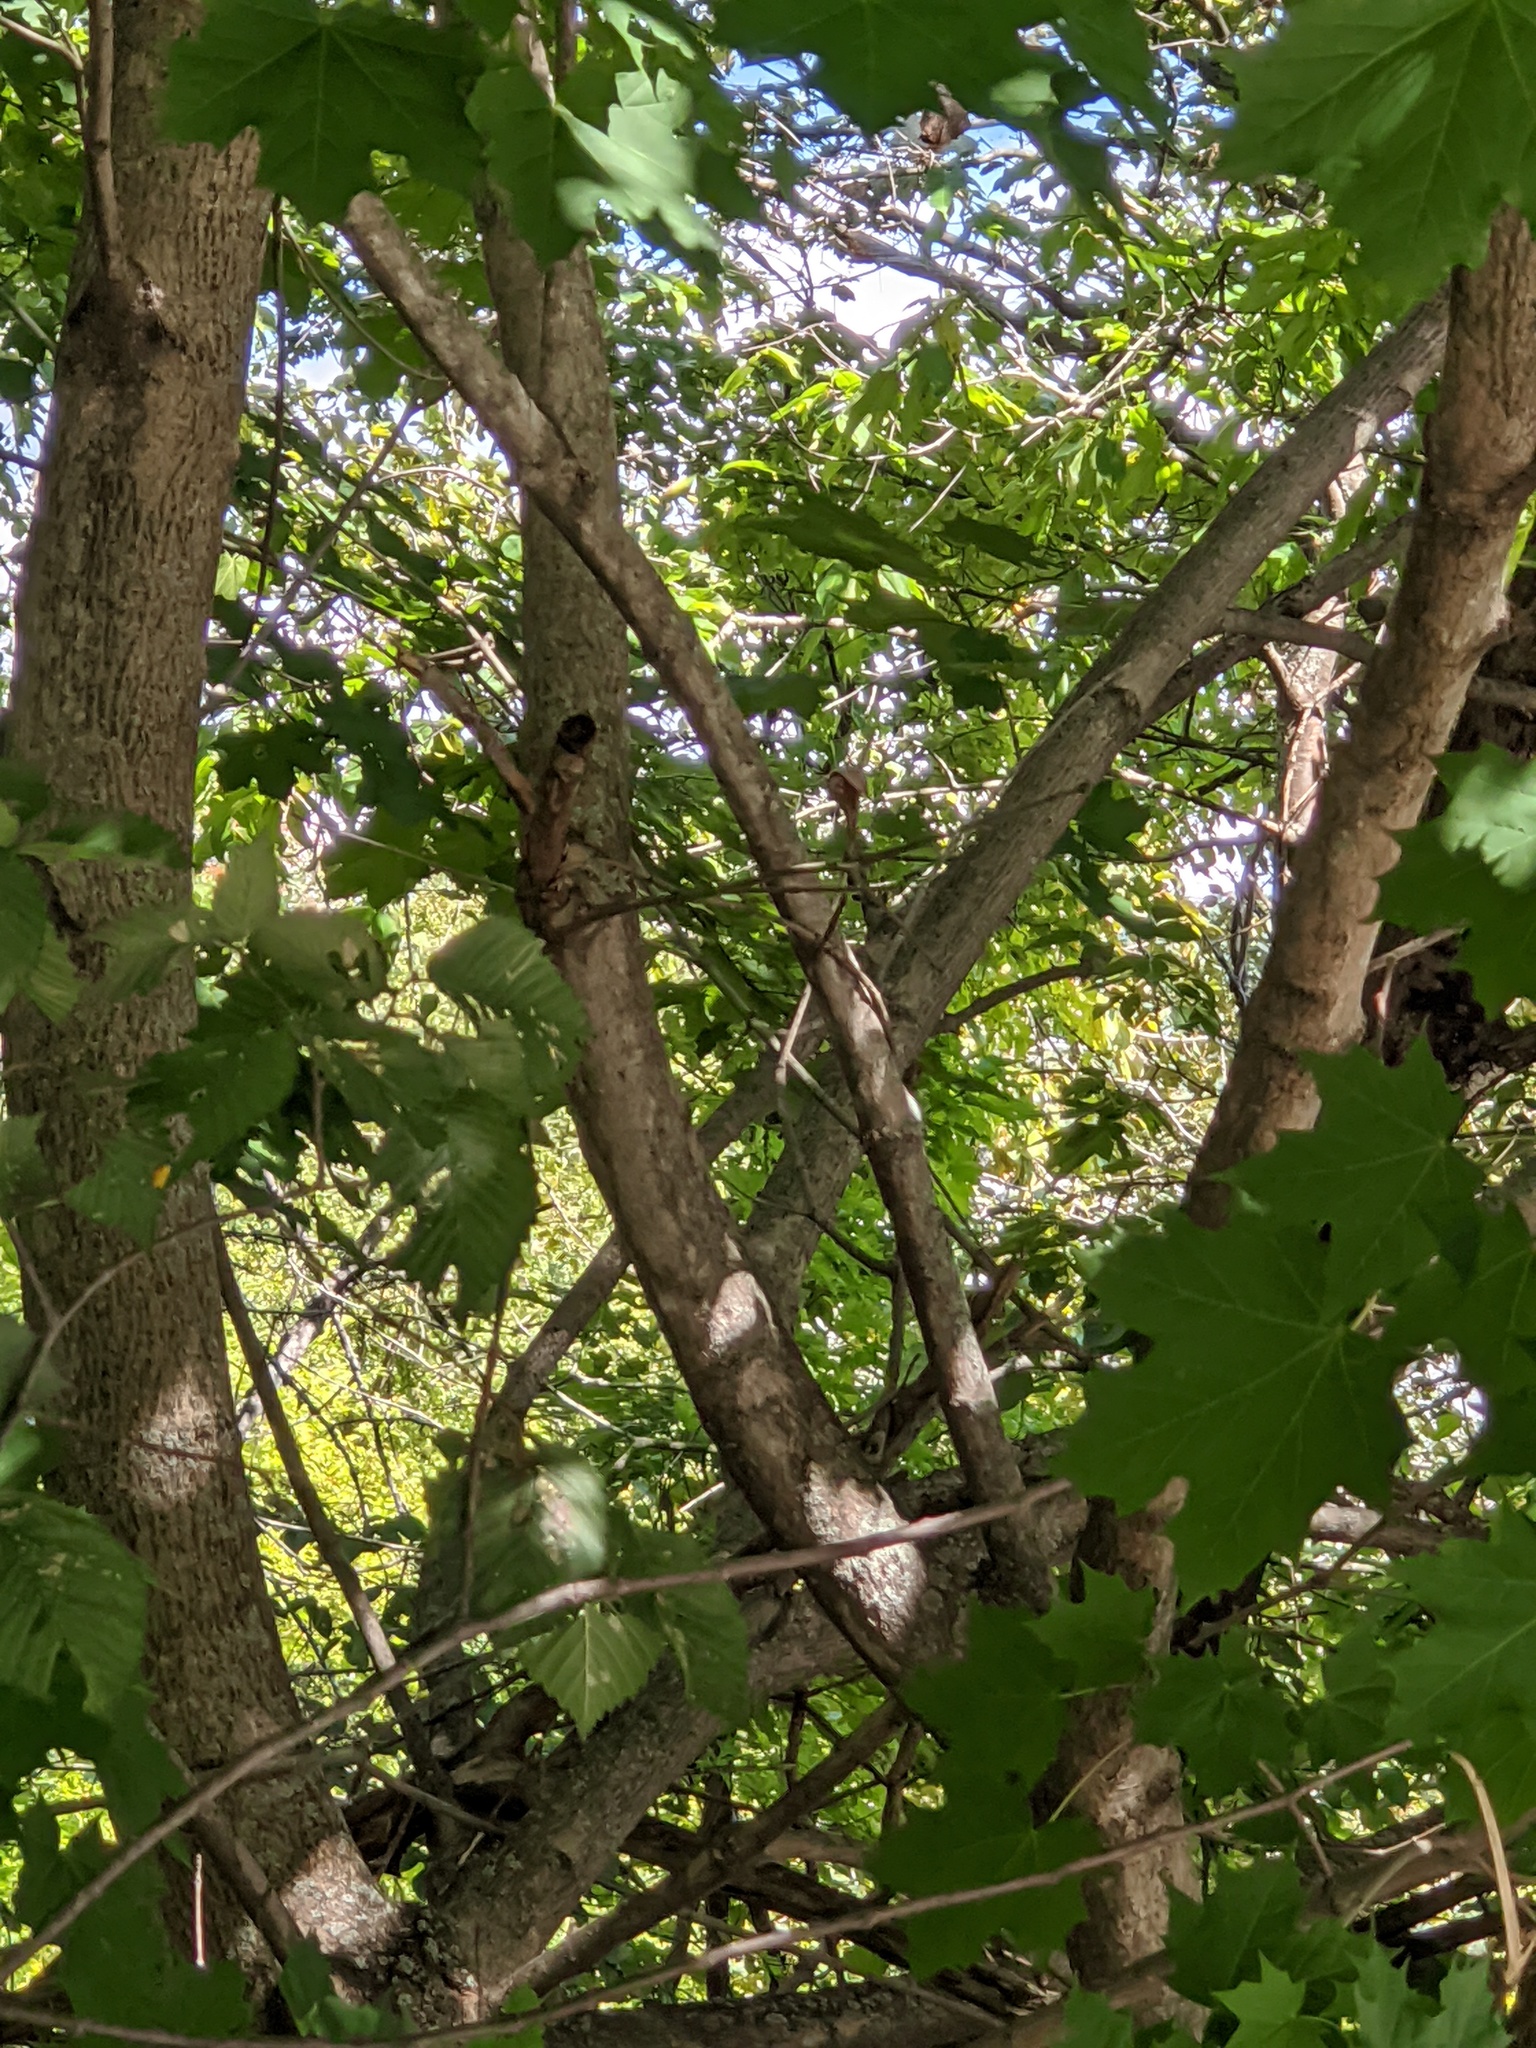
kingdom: Plantae
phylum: Tracheophyta
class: Magnoliopsida
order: Sapindales
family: Sapindaceae
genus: Acer
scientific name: Acer platanoides
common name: Norway maple
